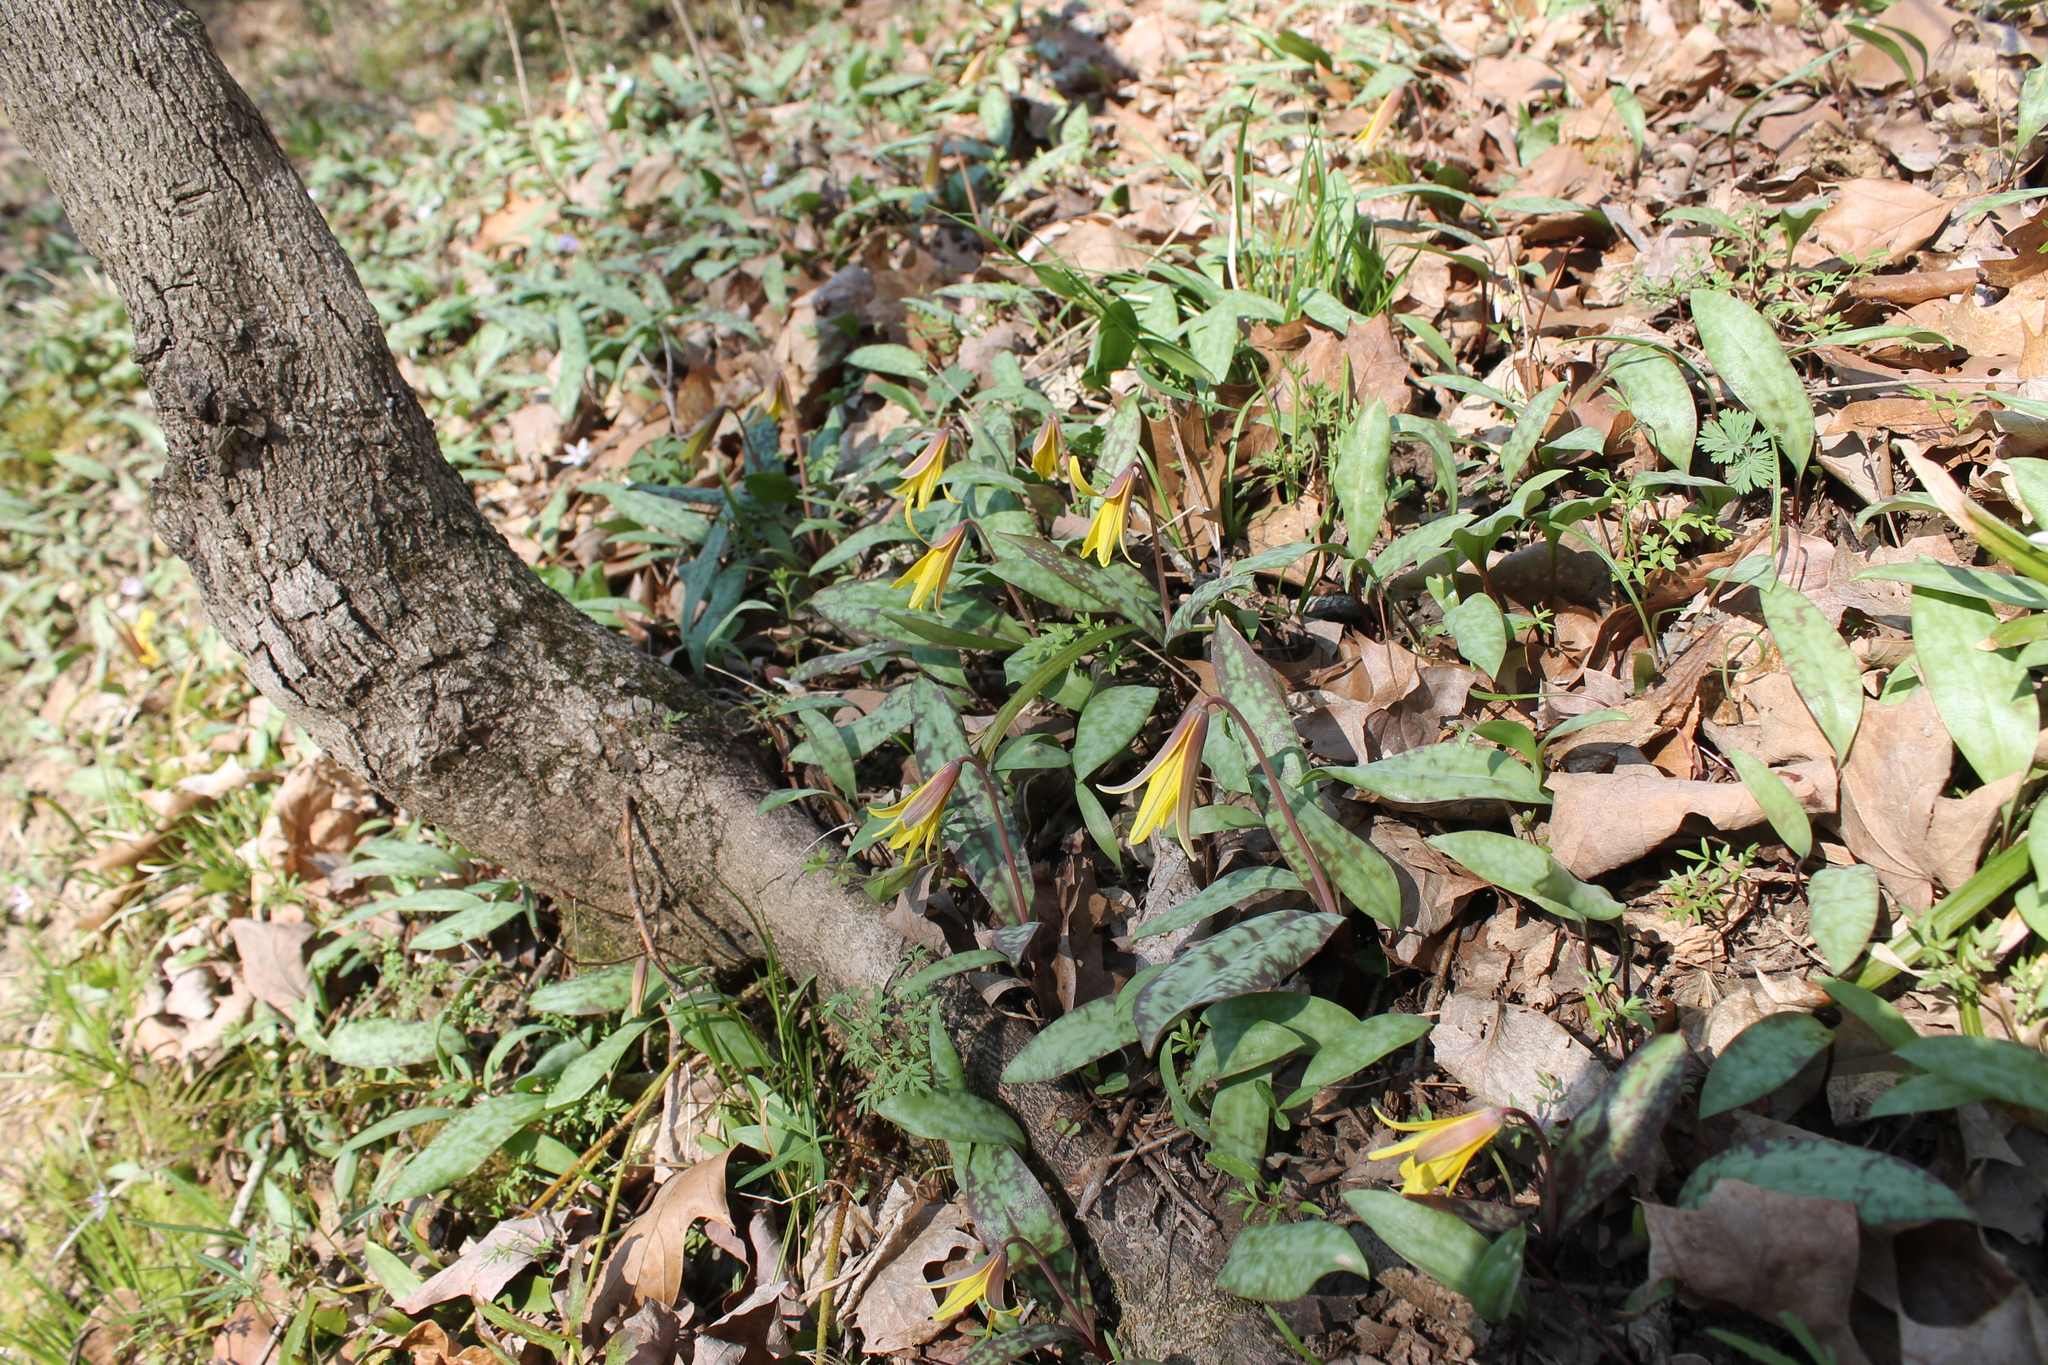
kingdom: Plantae
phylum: Tracheophyta
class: Liliopsida
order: Liliales
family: Liliaceae
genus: Erythronium
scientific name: Erythronium americanum
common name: Yellow adder's-tongue
